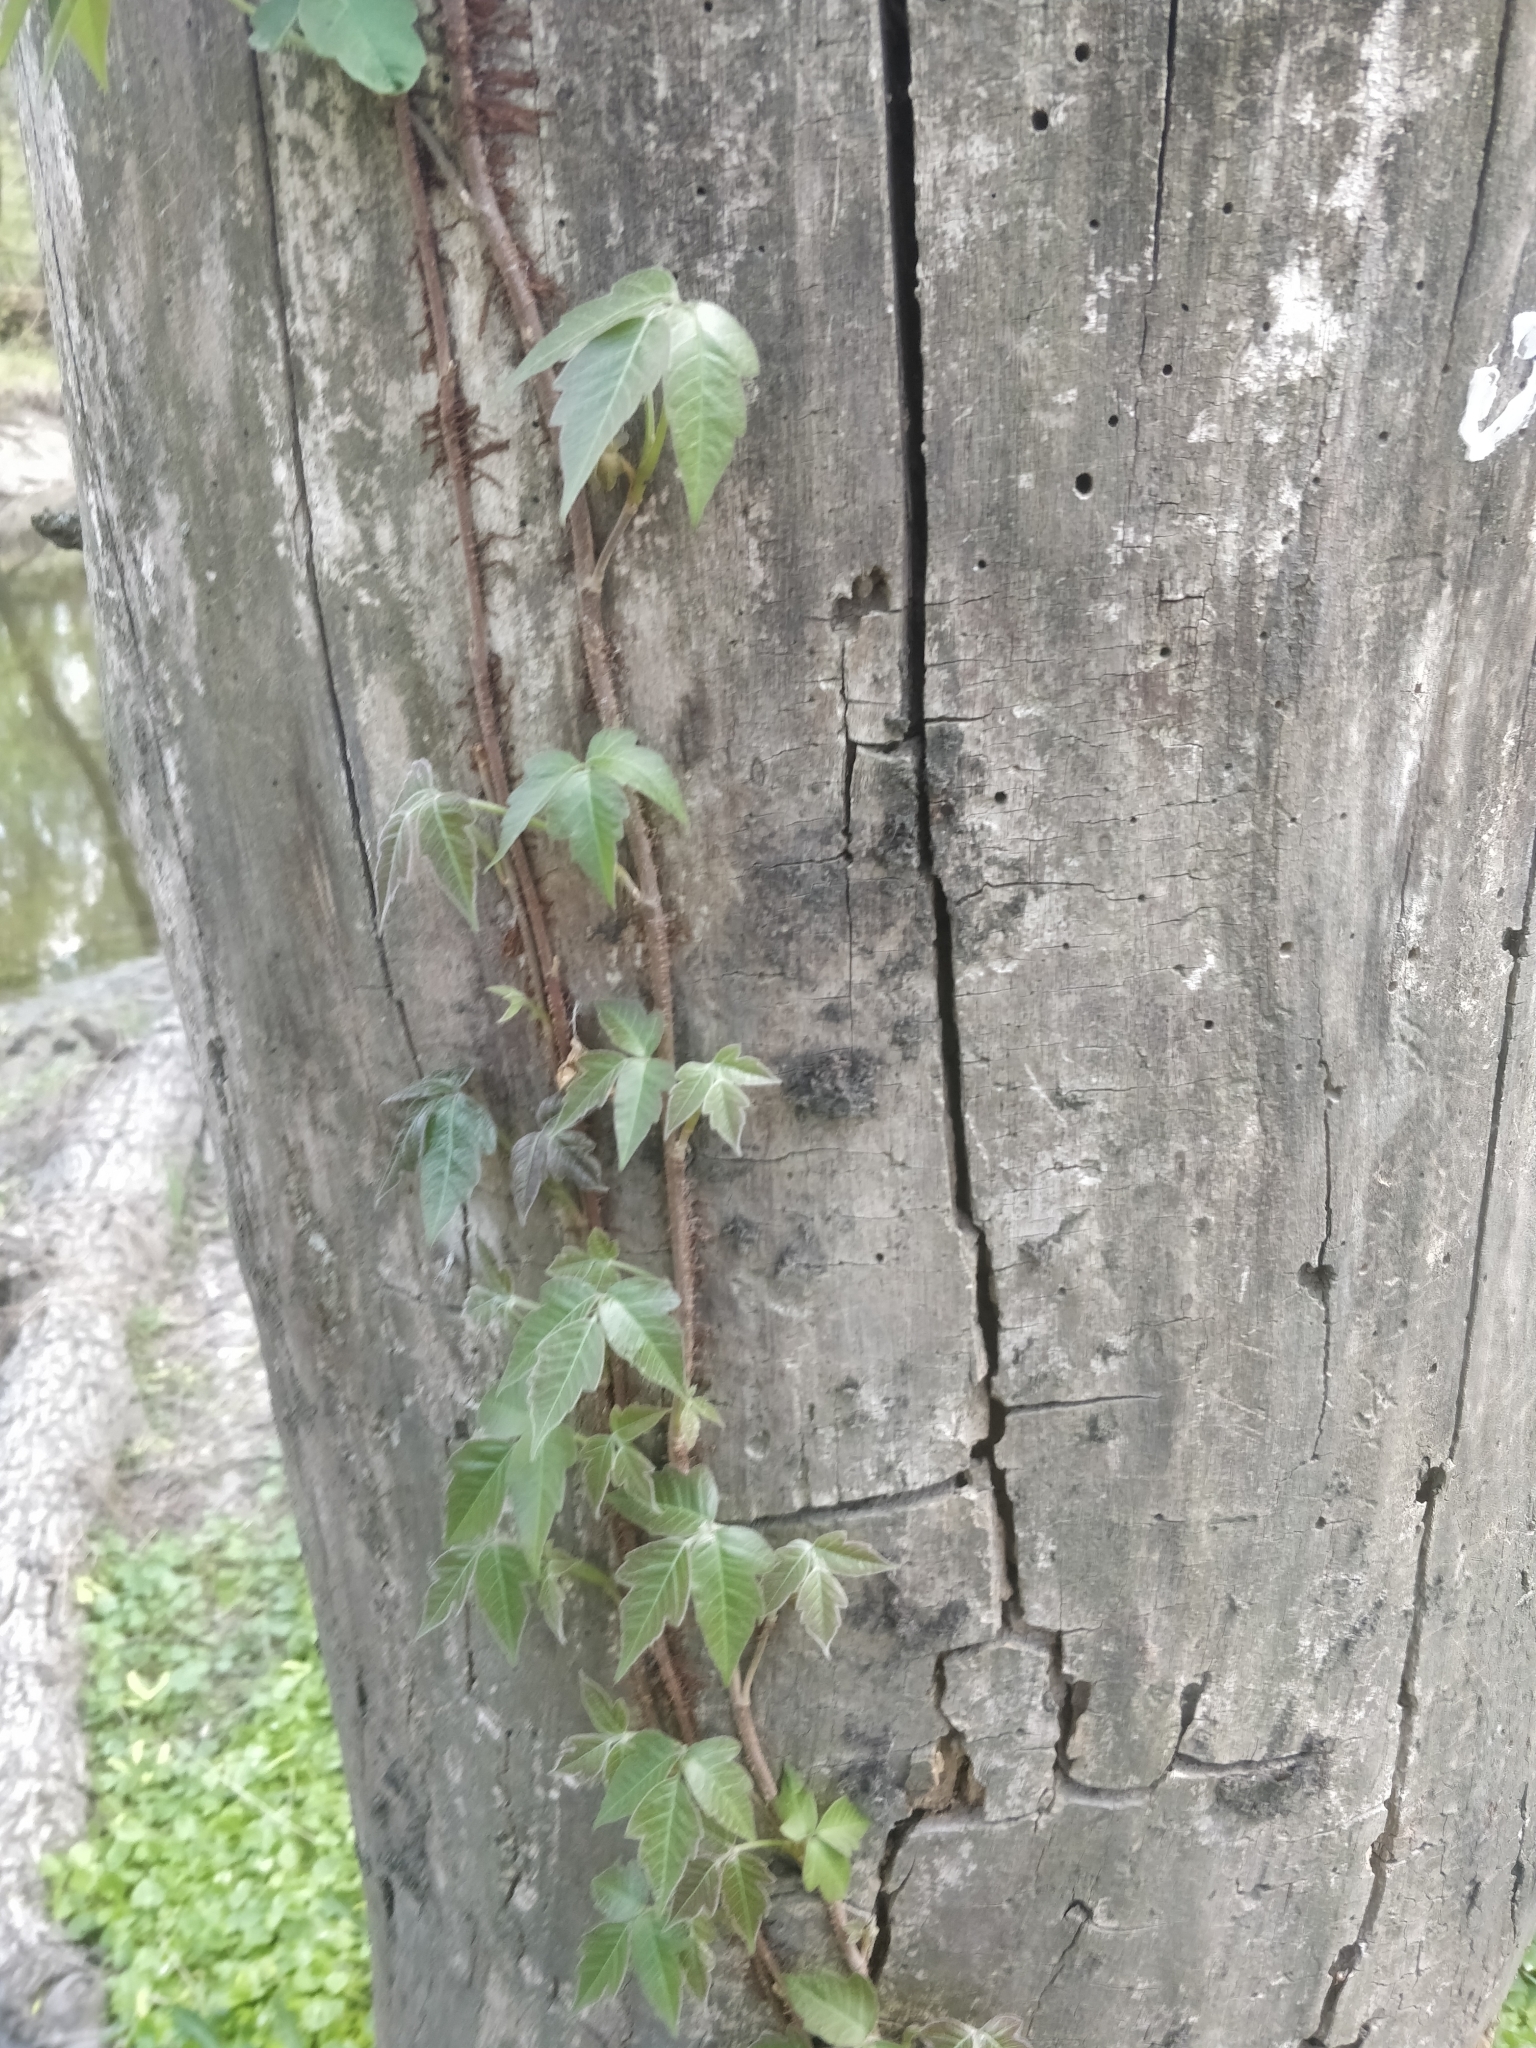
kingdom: Plantae
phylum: Tracheophyta
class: Magnoliopsida
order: Sapindales
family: Anacardiaceae
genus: Toxicodendron
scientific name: Toxicodendron radicans
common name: Poison ivy
